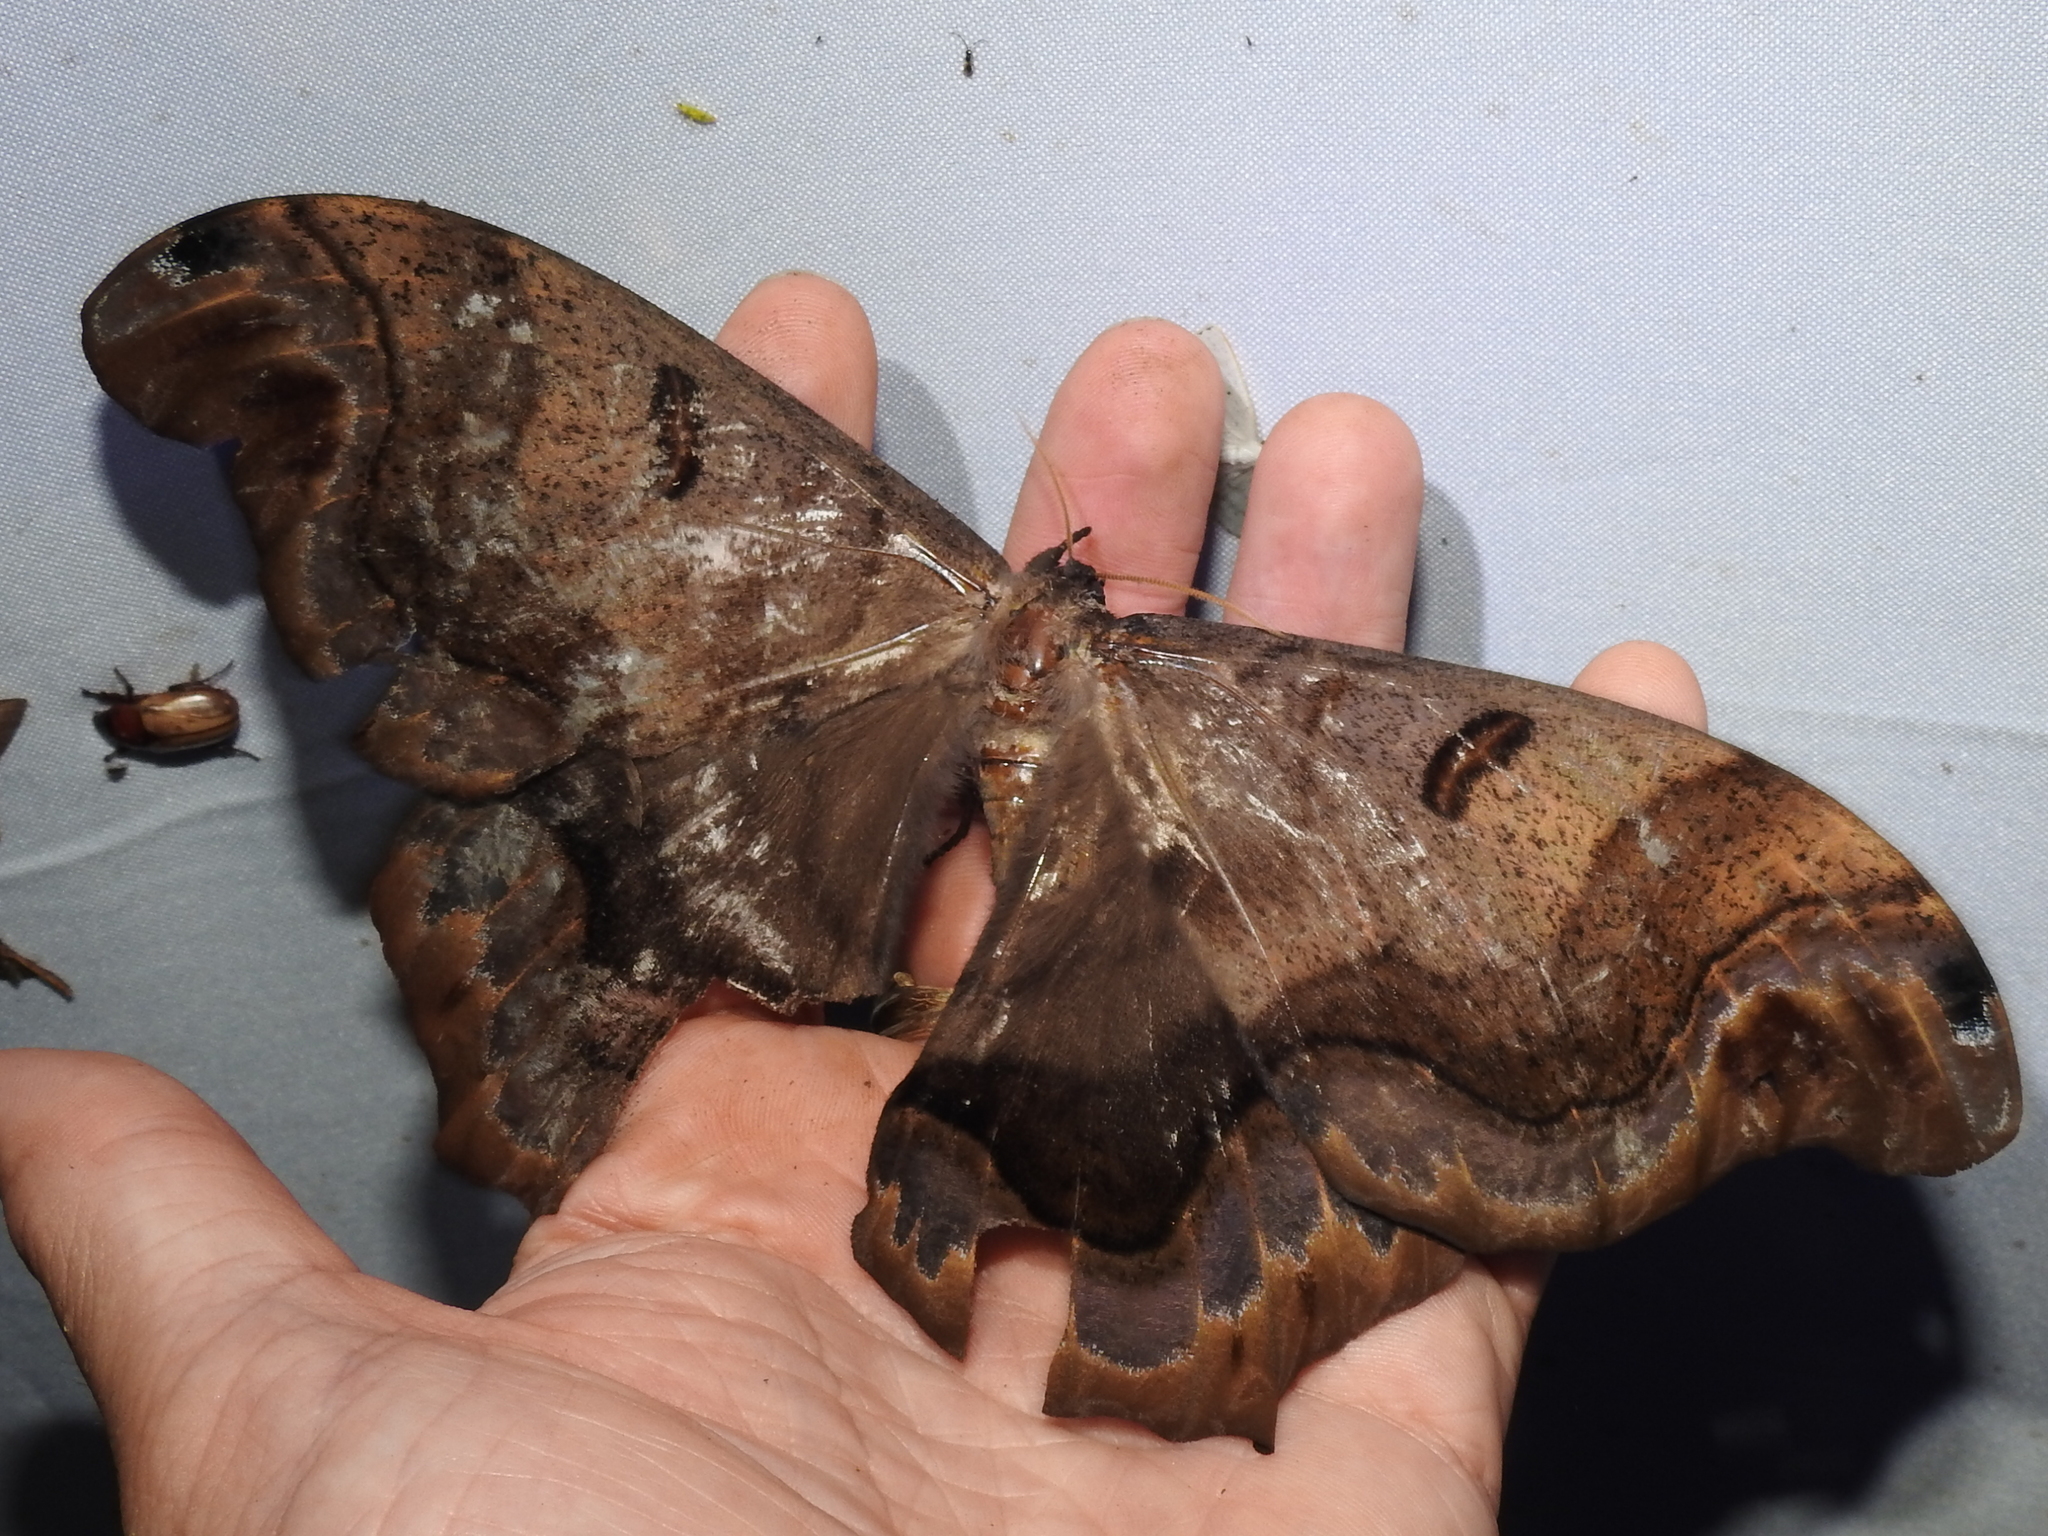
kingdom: Animalia
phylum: Arthropoda
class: Insecta
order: Lepidoptera
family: Saturniidae
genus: Caio
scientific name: Caio championi
